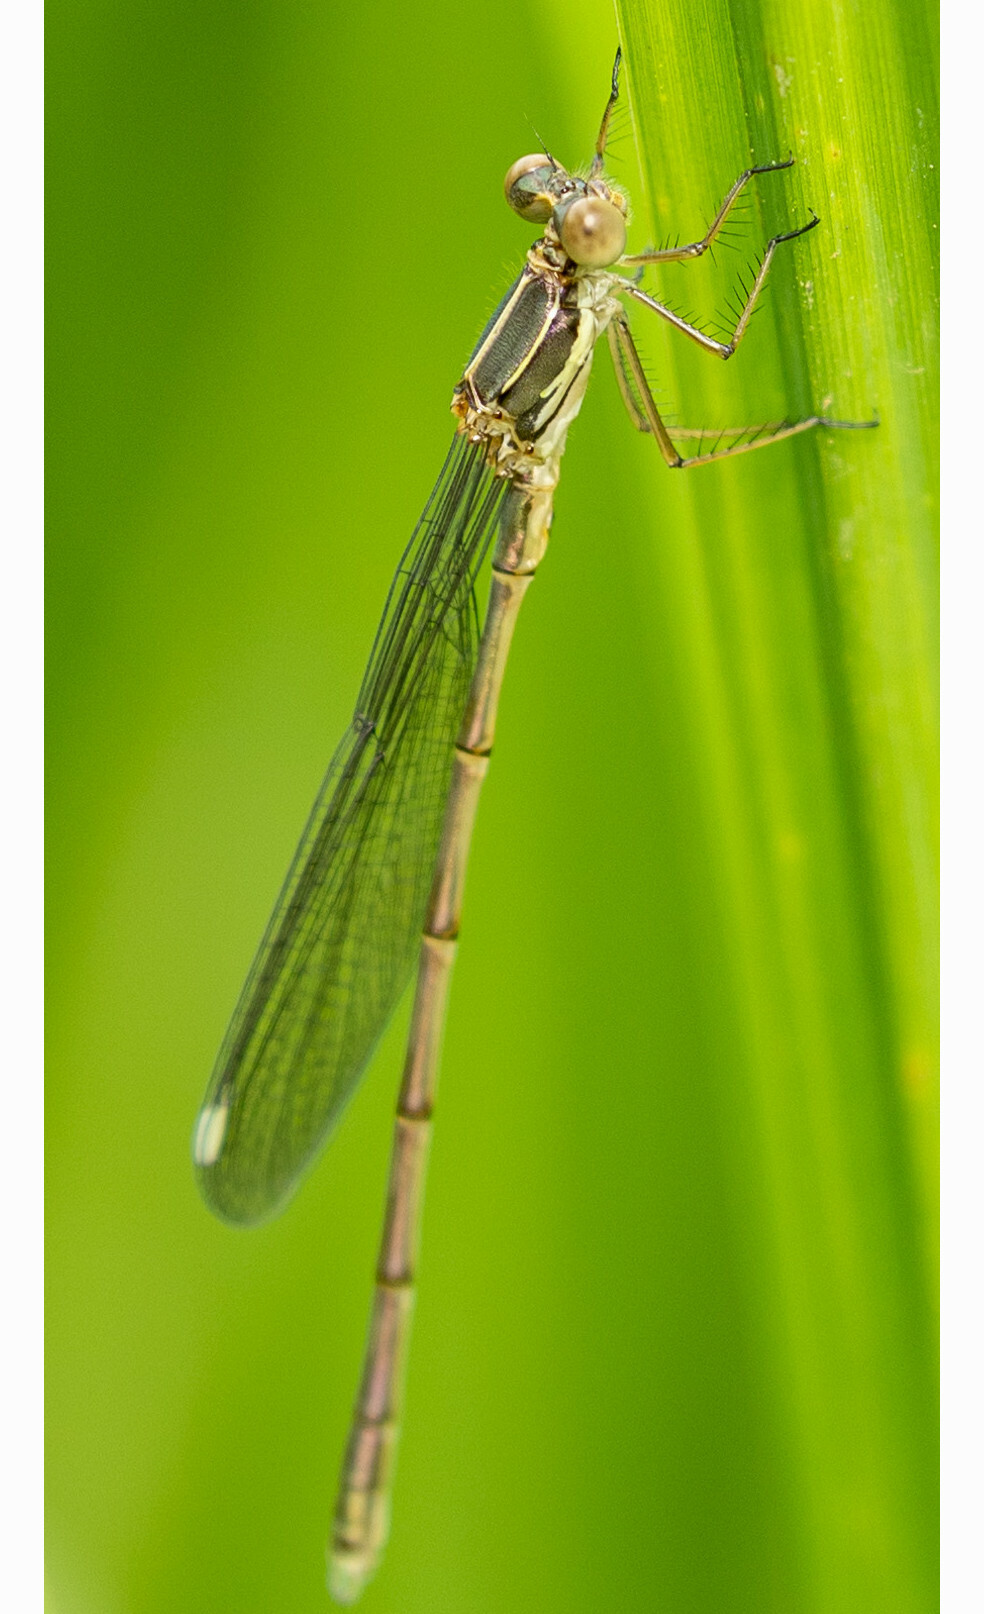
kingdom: Animalia
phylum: Arthropoda
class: Insecta
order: Odonata
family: Lestidae
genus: Chalcolestes
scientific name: Chalcolestes viridis
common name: Green emerald damselfly
